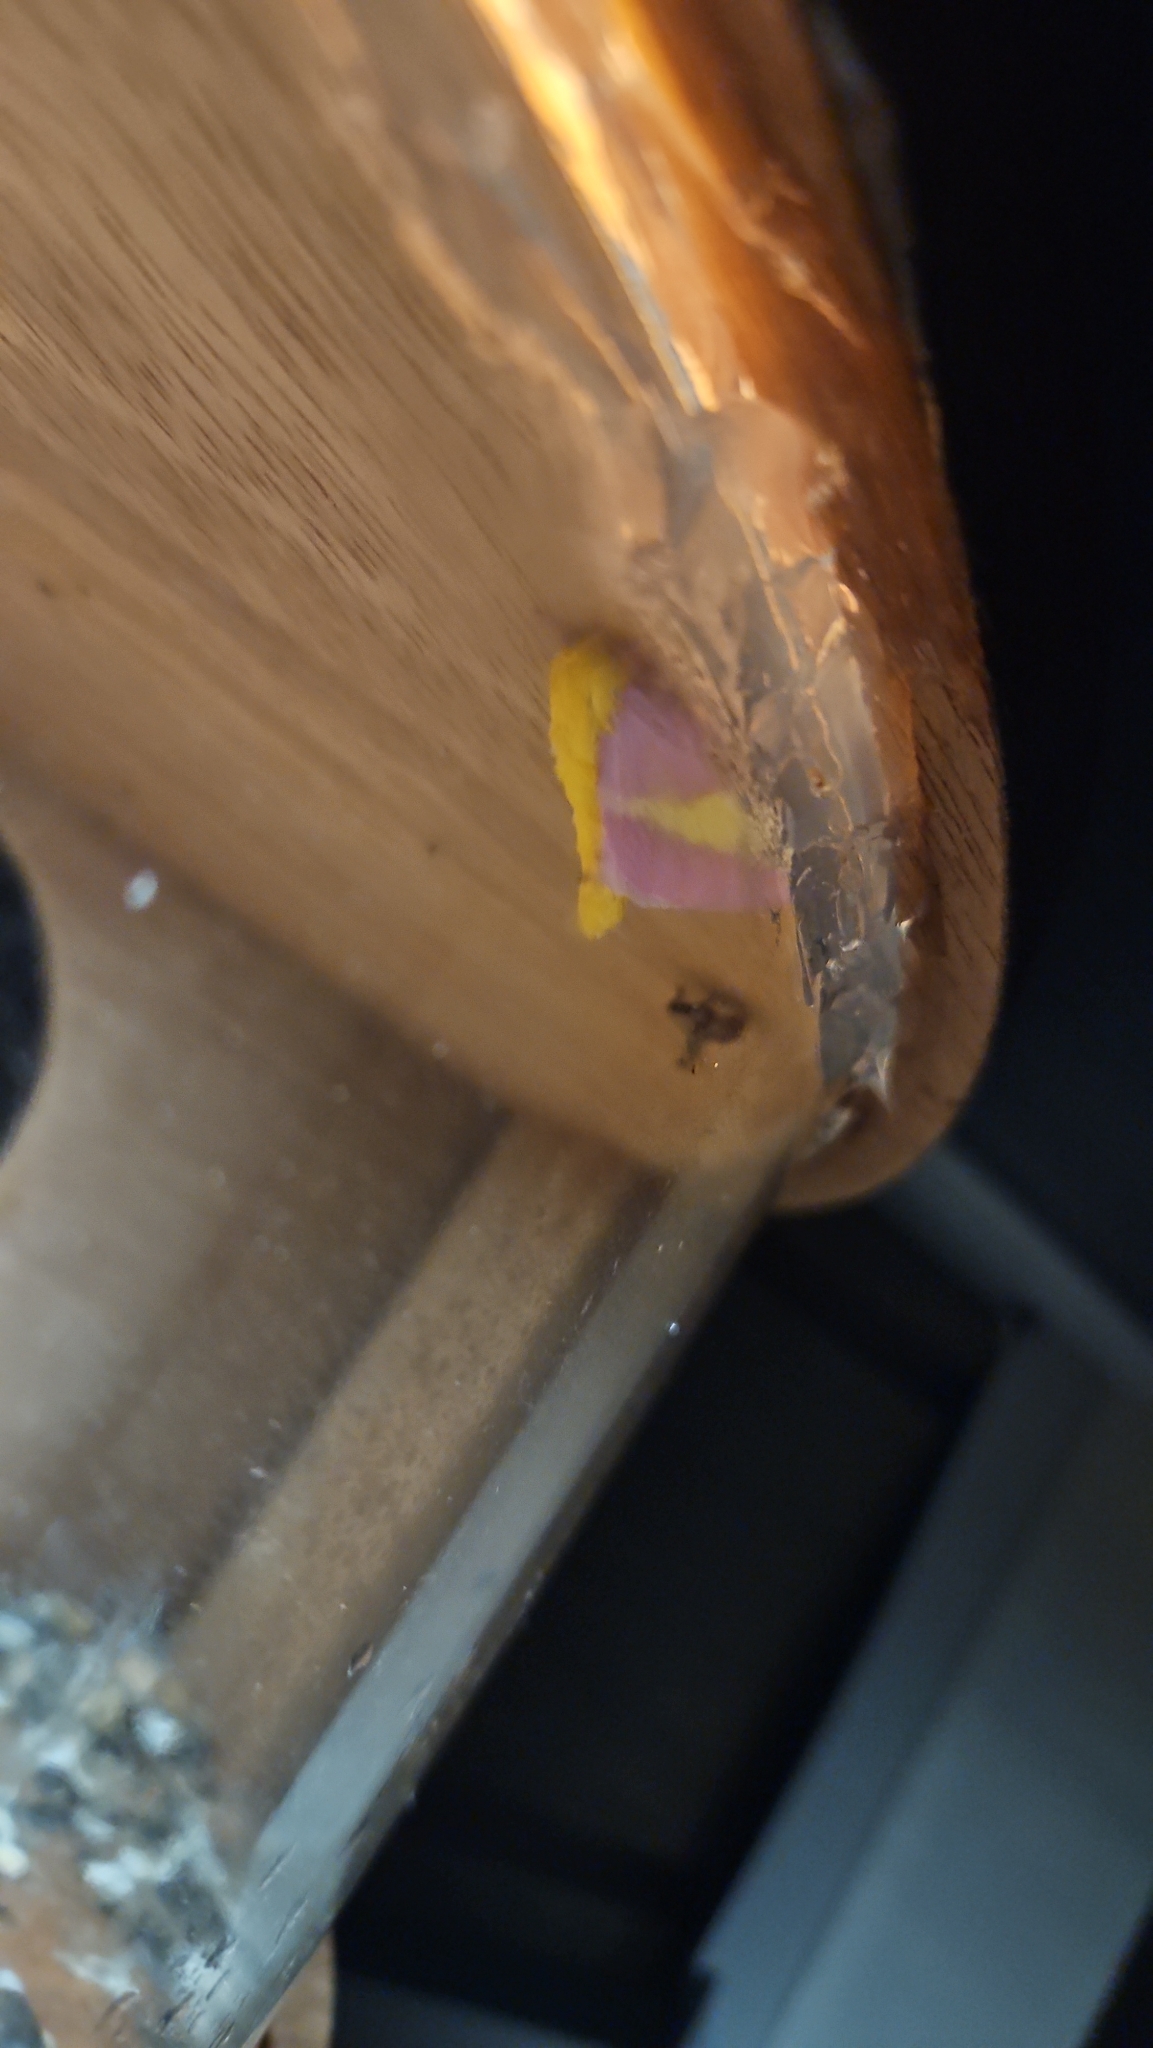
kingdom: Animalia
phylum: Arthropoda
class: Insecta
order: Lepidoptera
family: Saturniidae
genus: Dryocampa
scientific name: Dryocampa rubicunda
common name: Rosy maple moth
